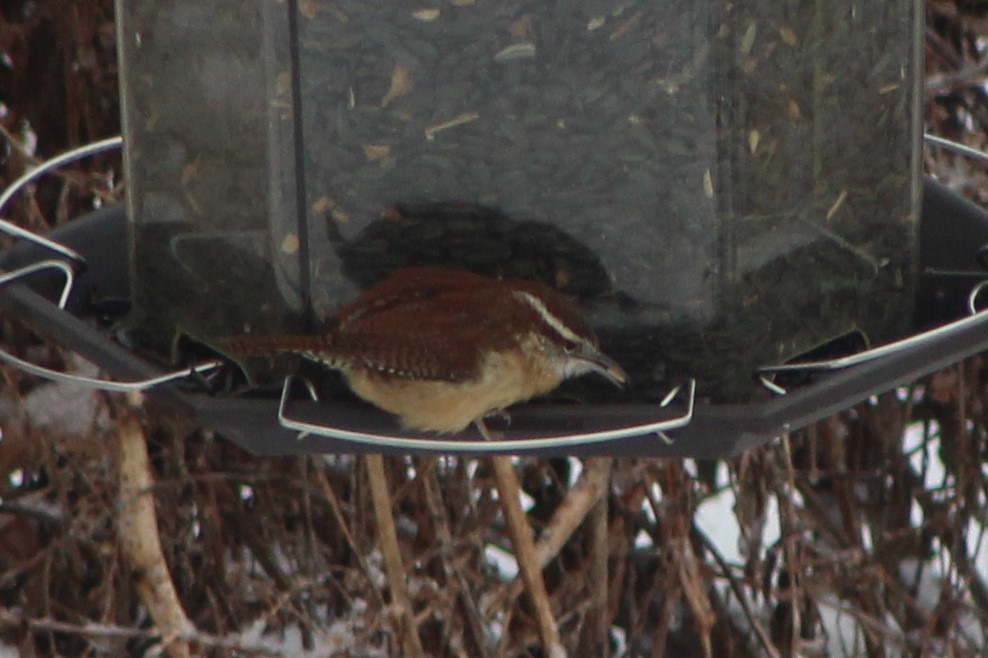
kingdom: Animalia
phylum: Chordata
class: Aves
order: Passeriformes
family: Troglodytidae
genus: Thryothorus
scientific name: Thryothorus ludovicianus
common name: Carolina wren
